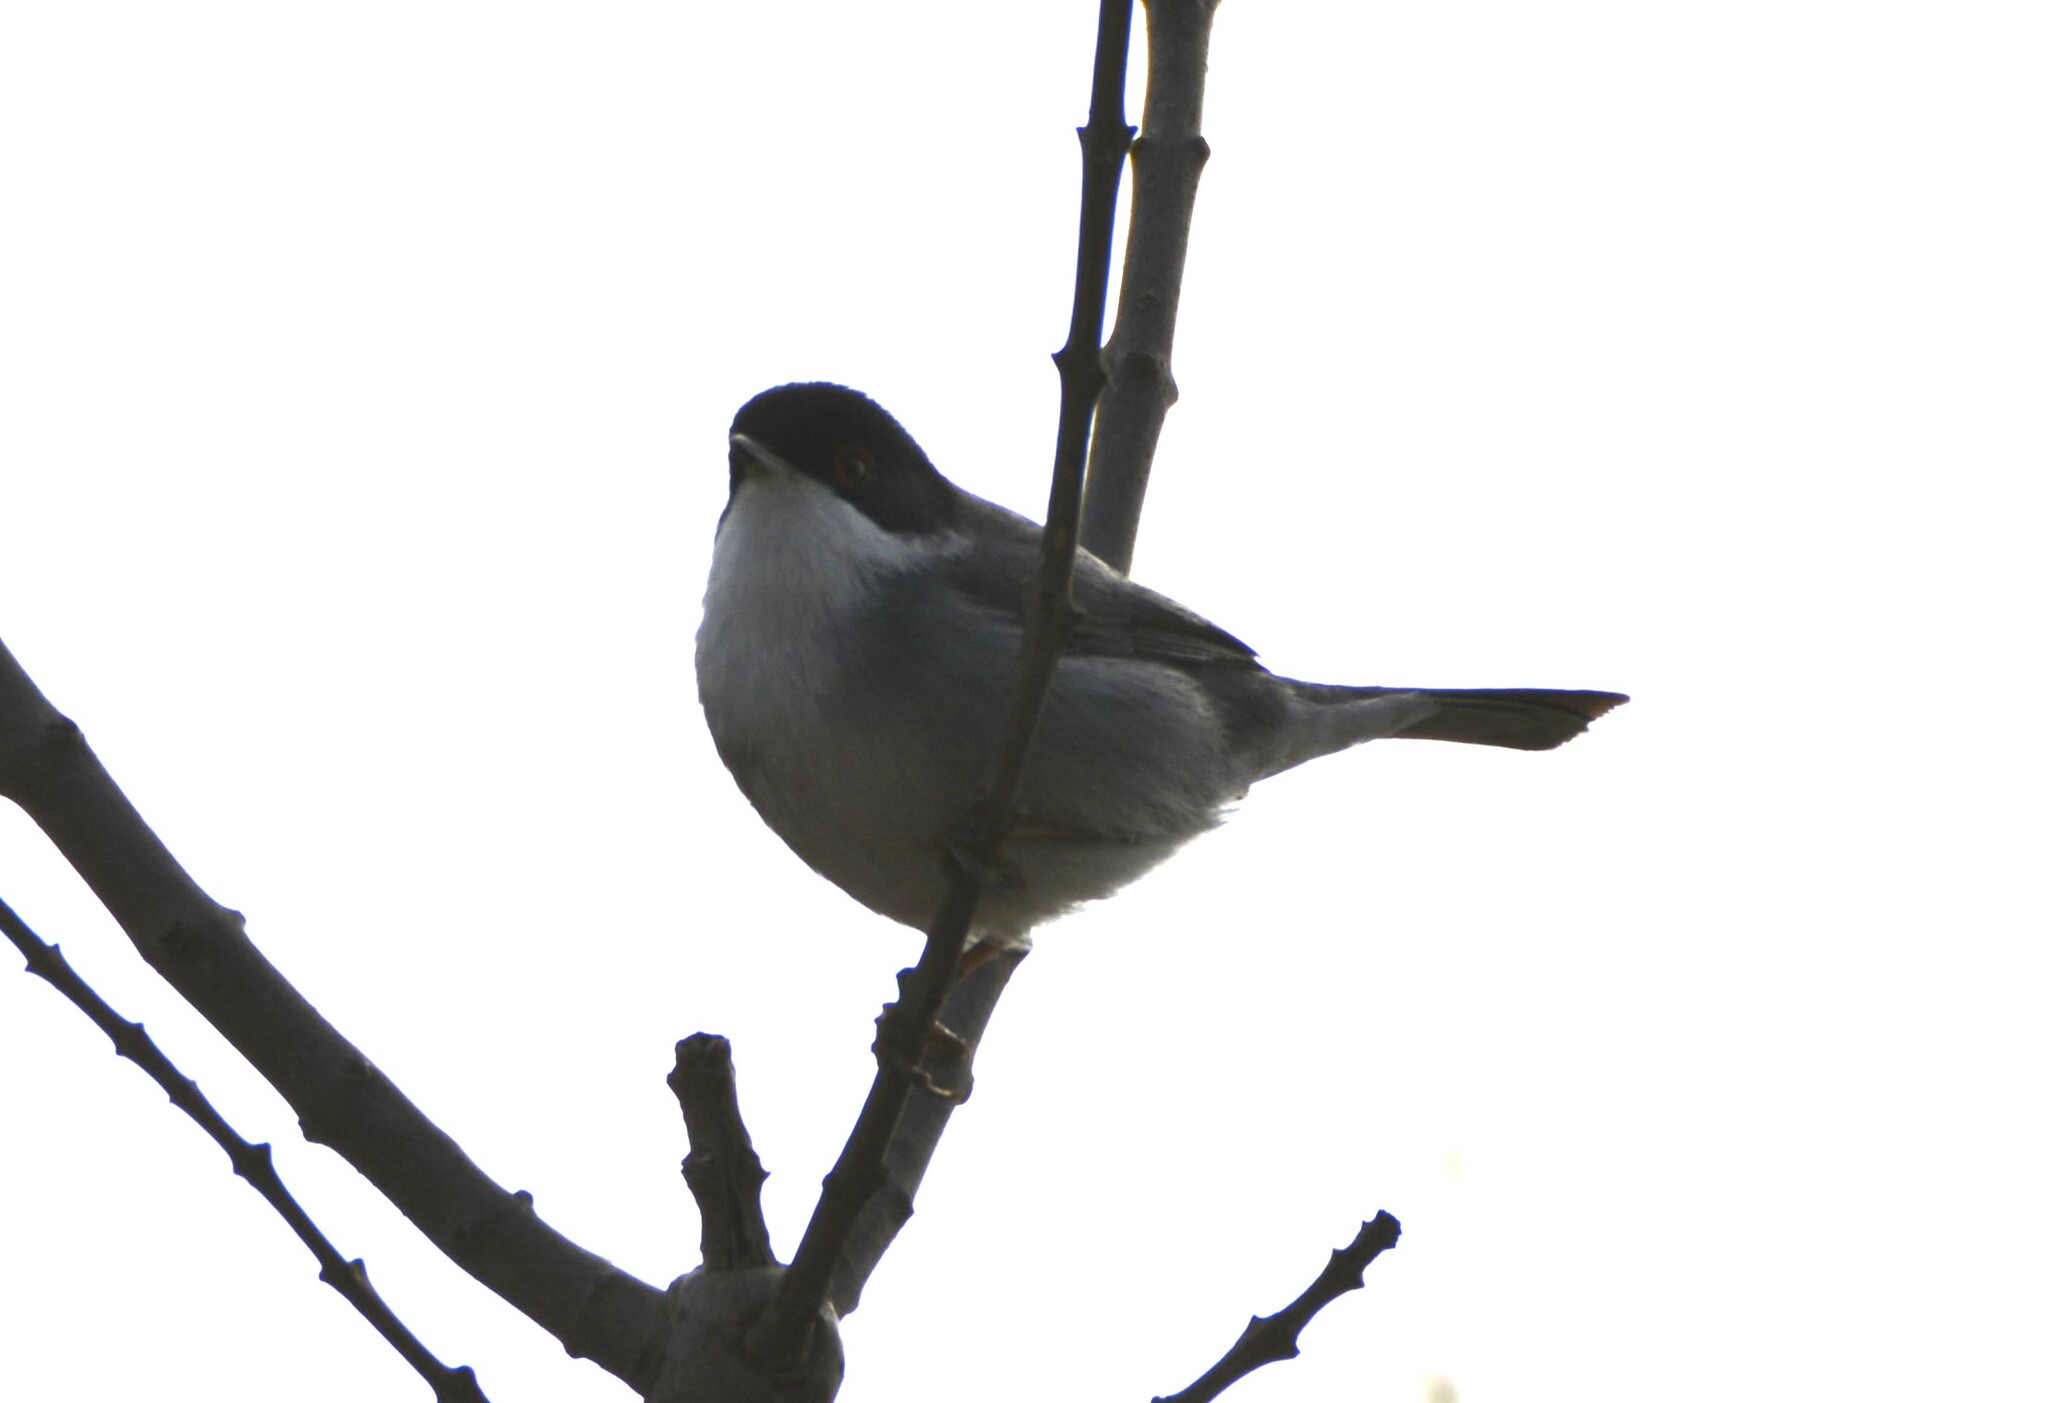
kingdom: Animalia
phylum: Chordata
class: Aves
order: Passeriformes
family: Sylviidae
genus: Curruca
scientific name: Curruca melanocephala
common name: Sardinian warbler
